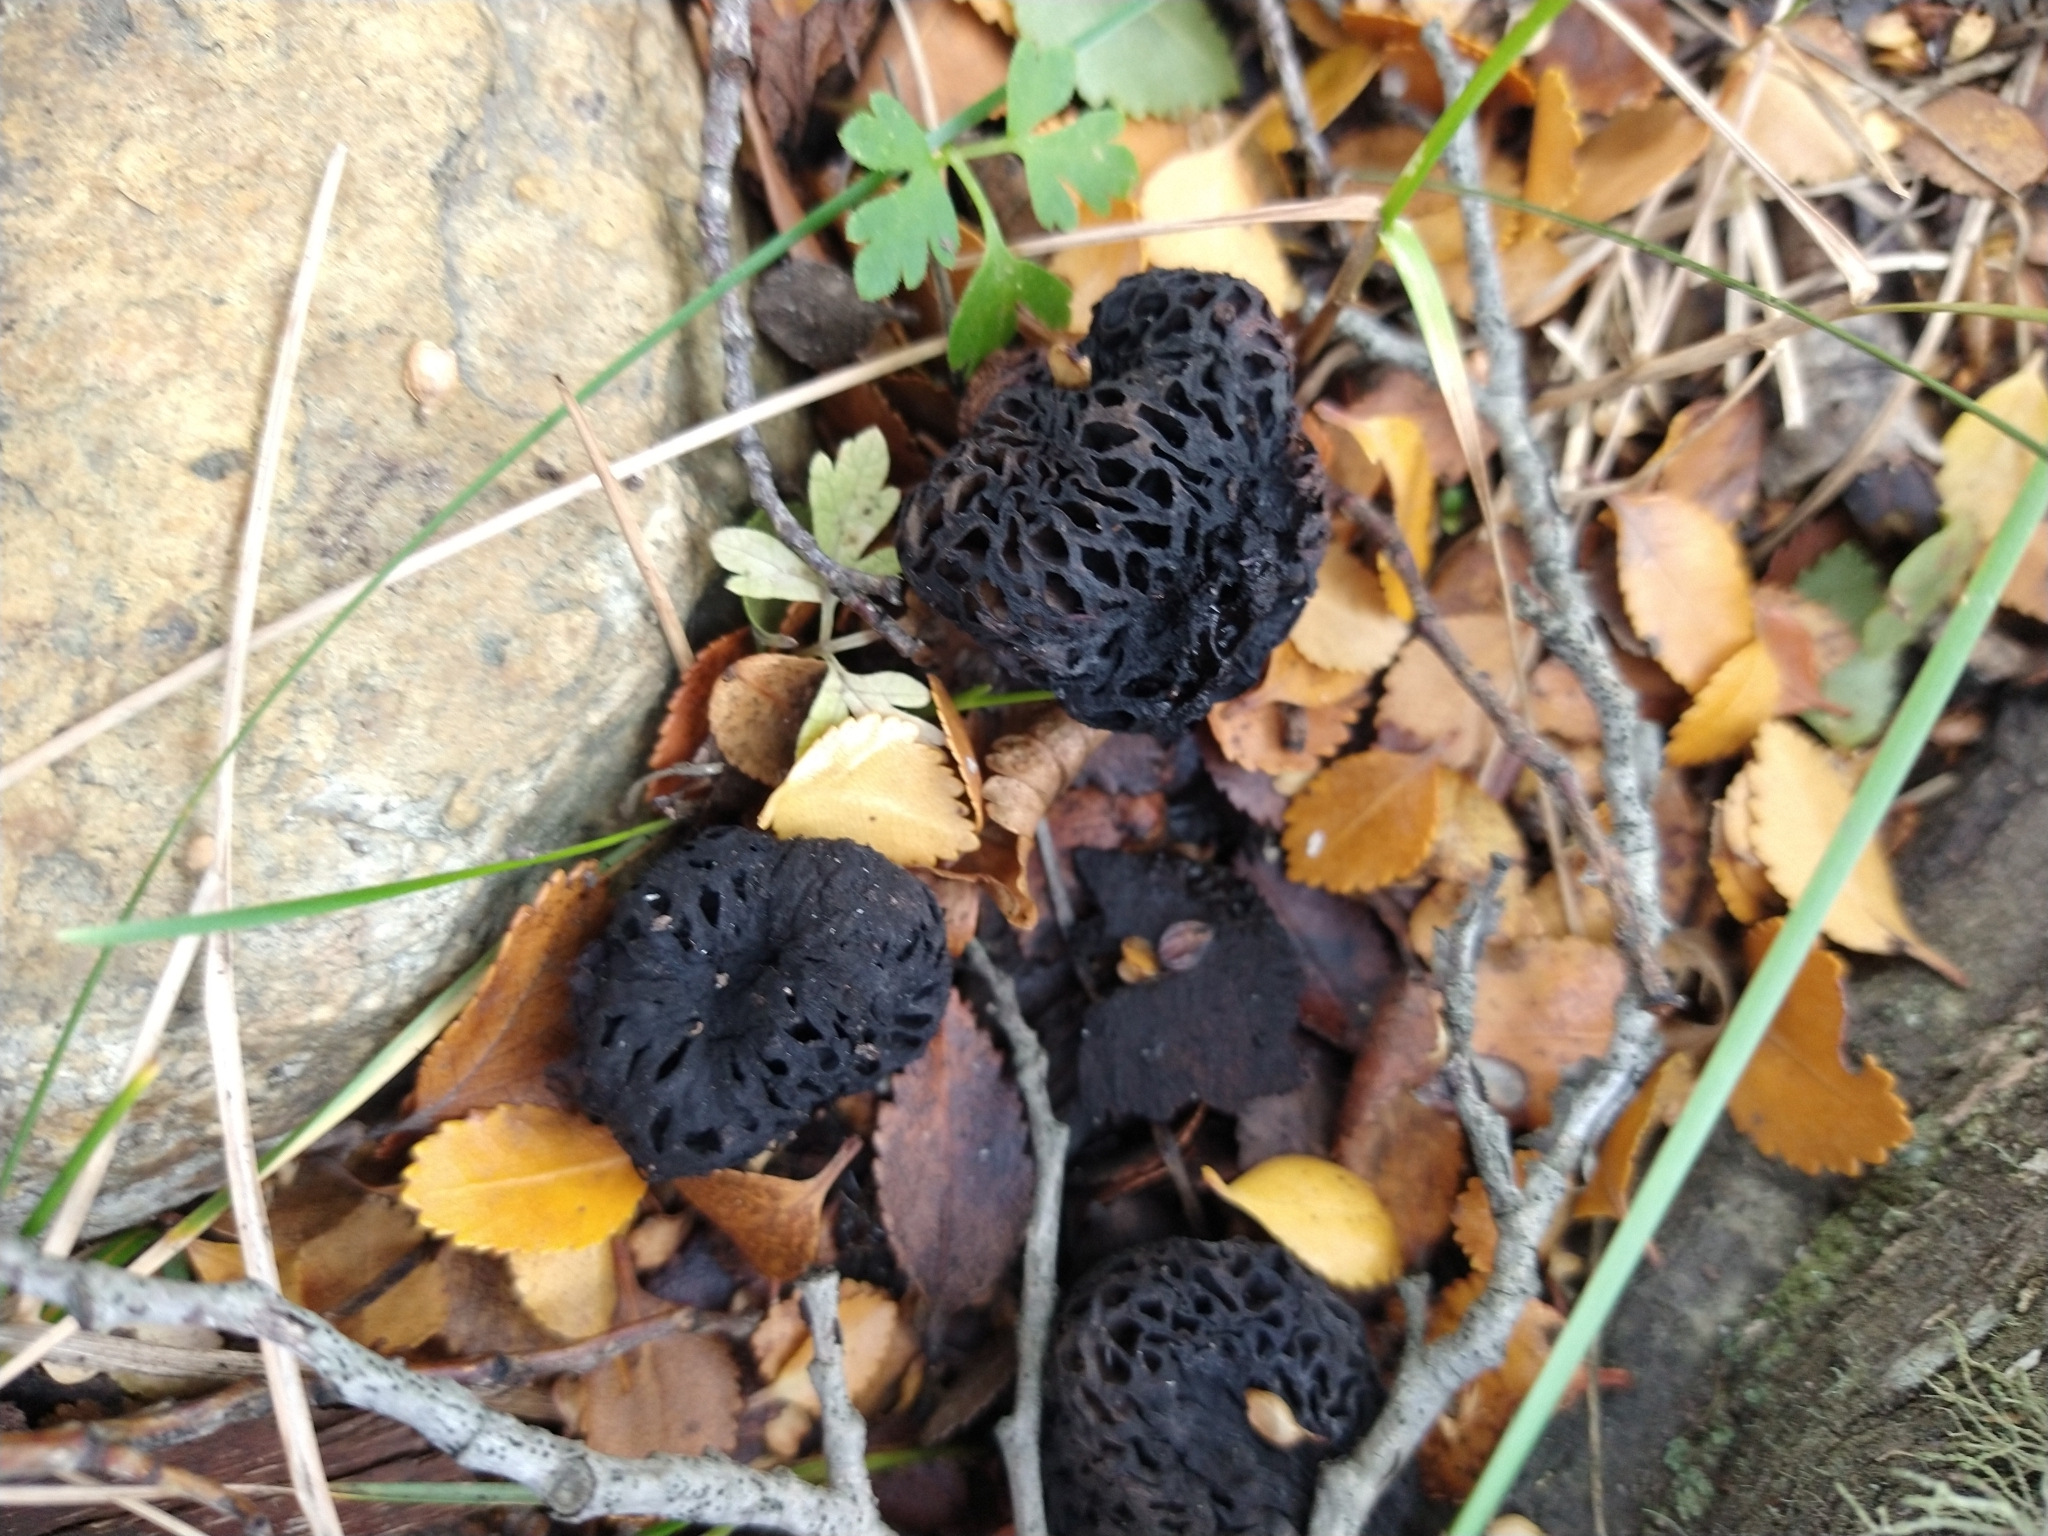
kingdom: Fungi
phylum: Ascomycota
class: Leotiomycetes
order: Cyttariales
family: Cyttariaceae
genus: Cyttaria
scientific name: Cyttaria hariotii
